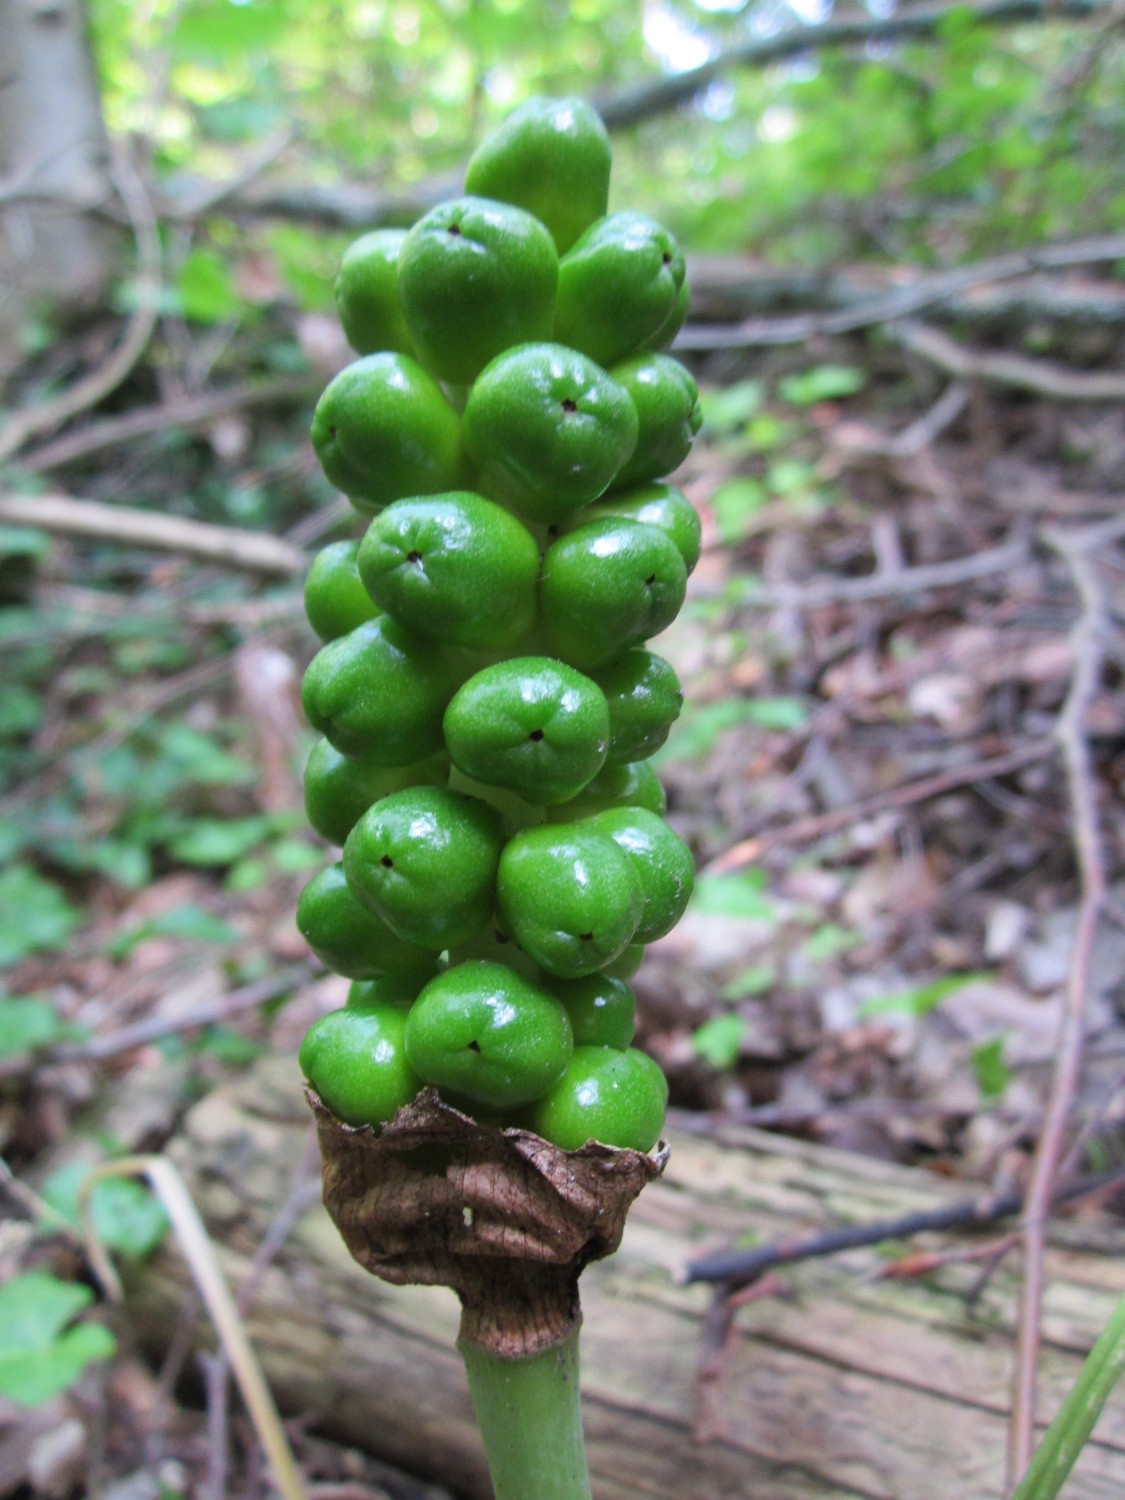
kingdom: Plantae
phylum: Tracheophyta
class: Liliopsida
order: Alismatales
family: Araceae
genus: Arum
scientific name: Arum maculatum
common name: Lords-and-ladies
